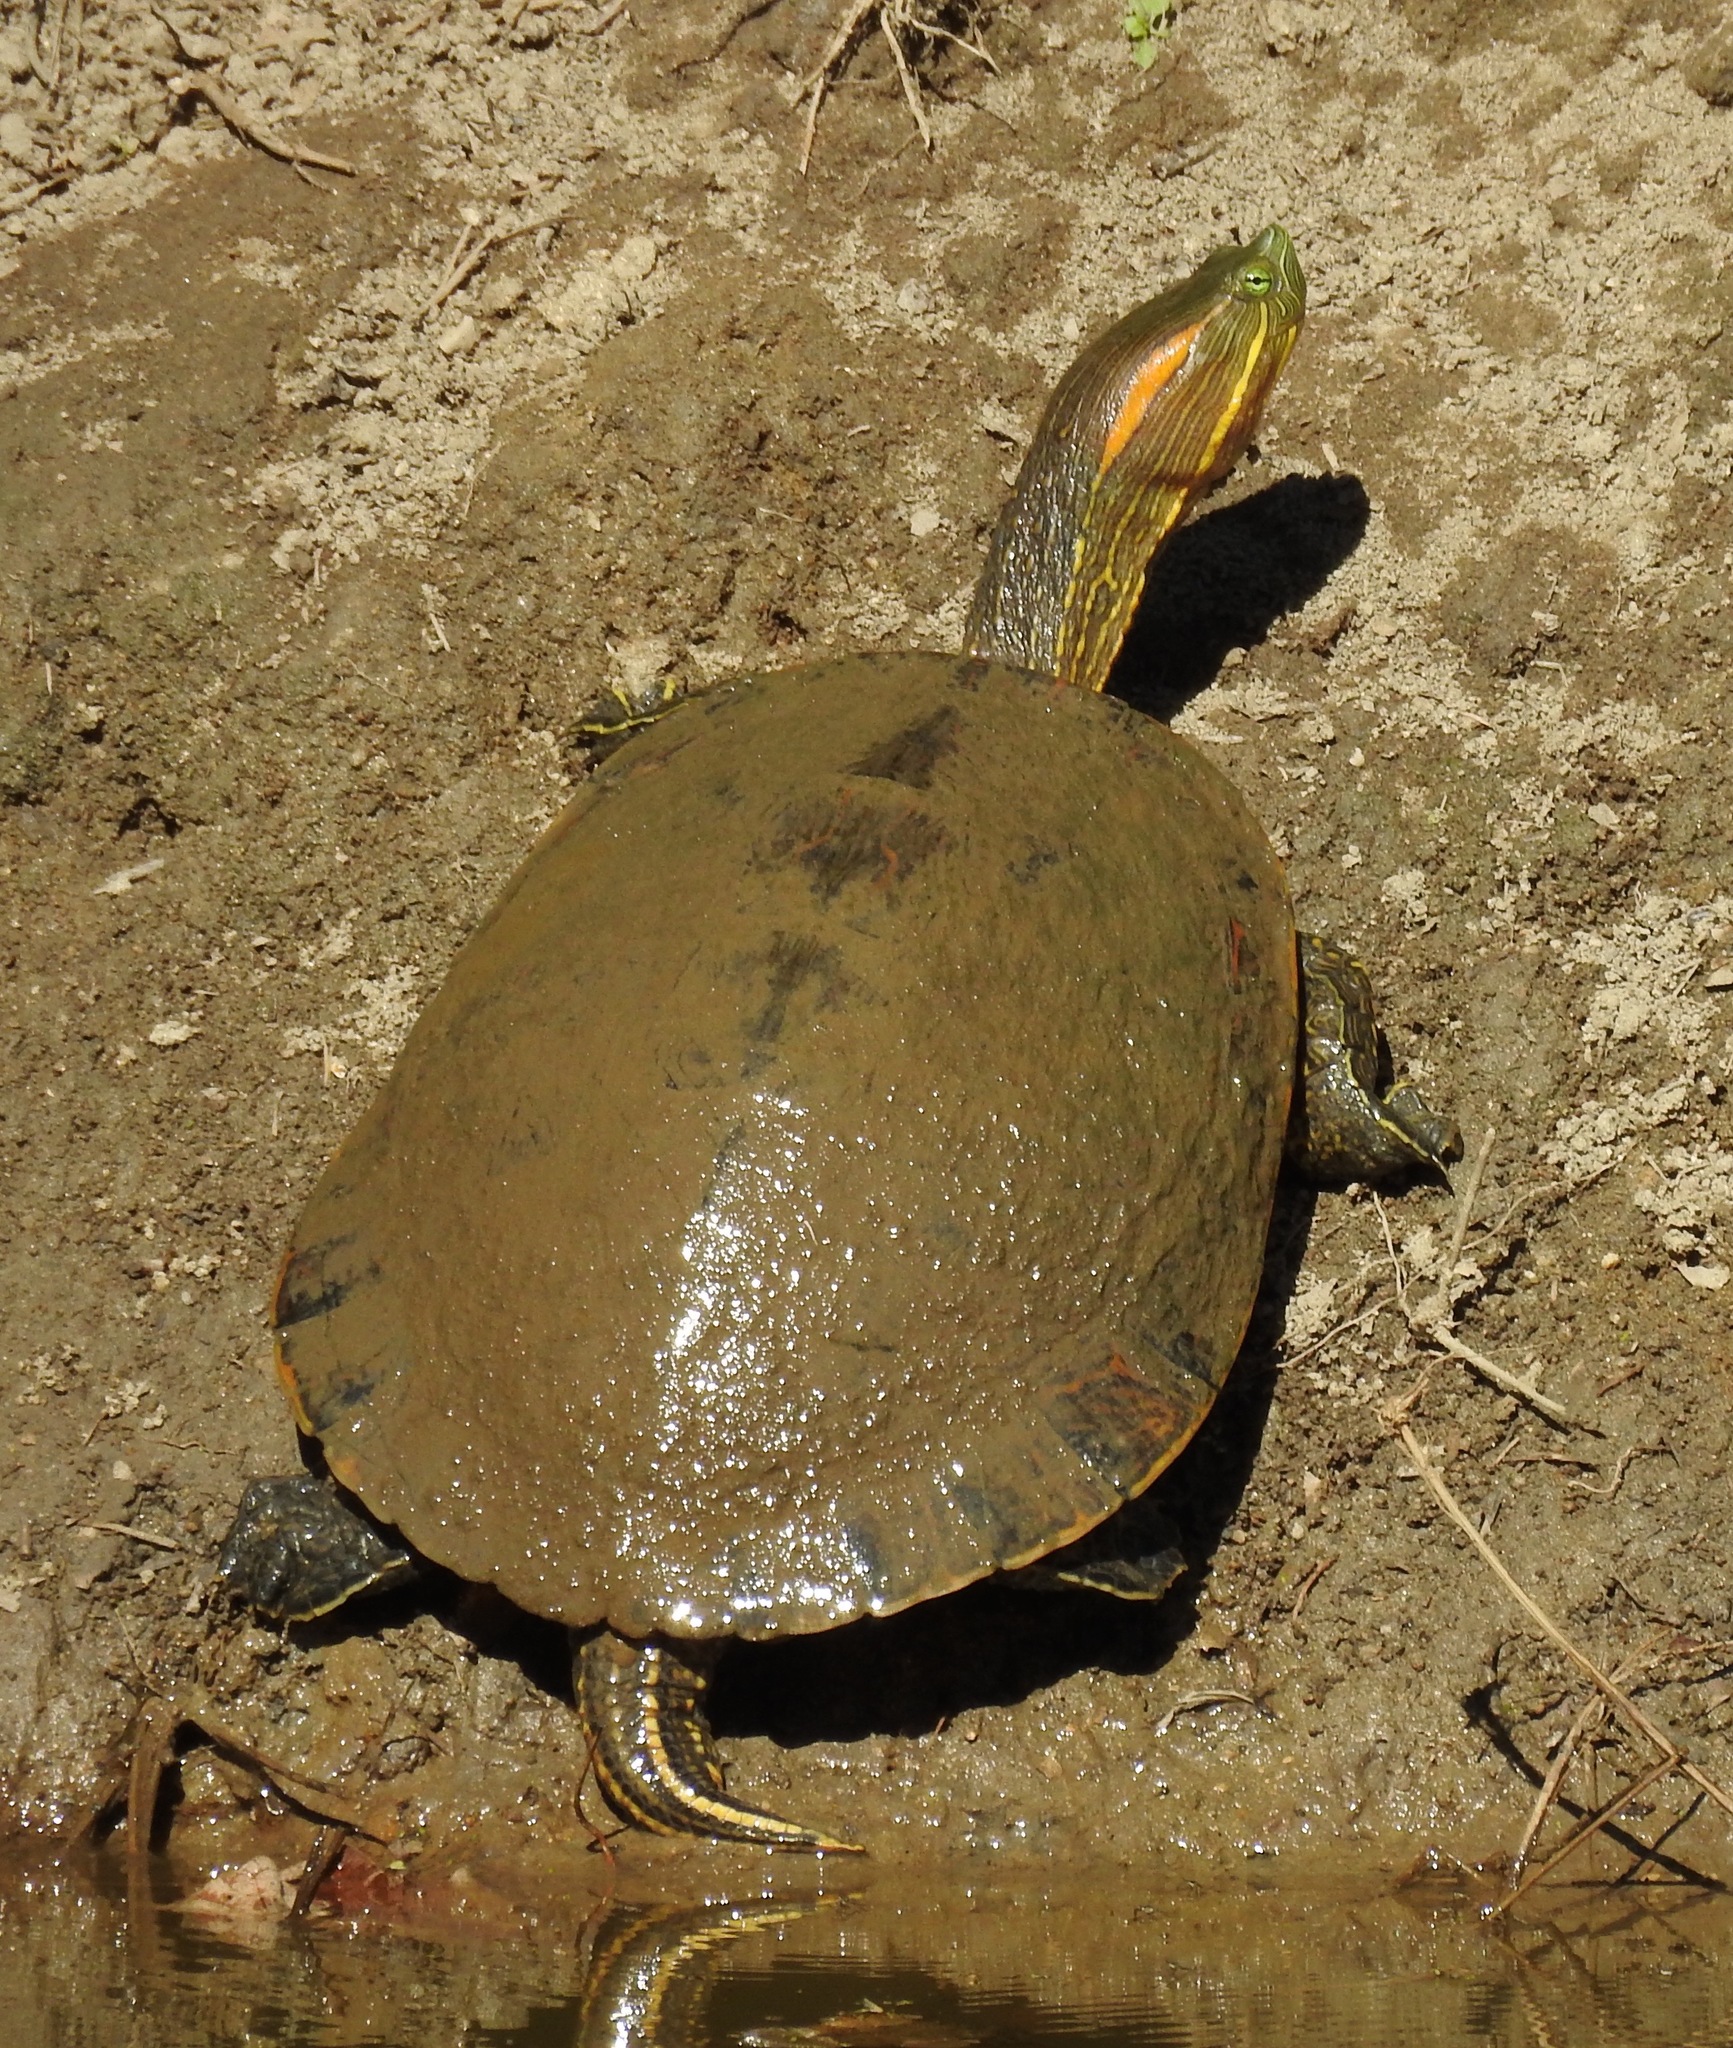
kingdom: Animalia
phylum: Chordata
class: Testudines
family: Emydidae
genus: Trachemys
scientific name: Trachemys ornata
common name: Ornate slider
